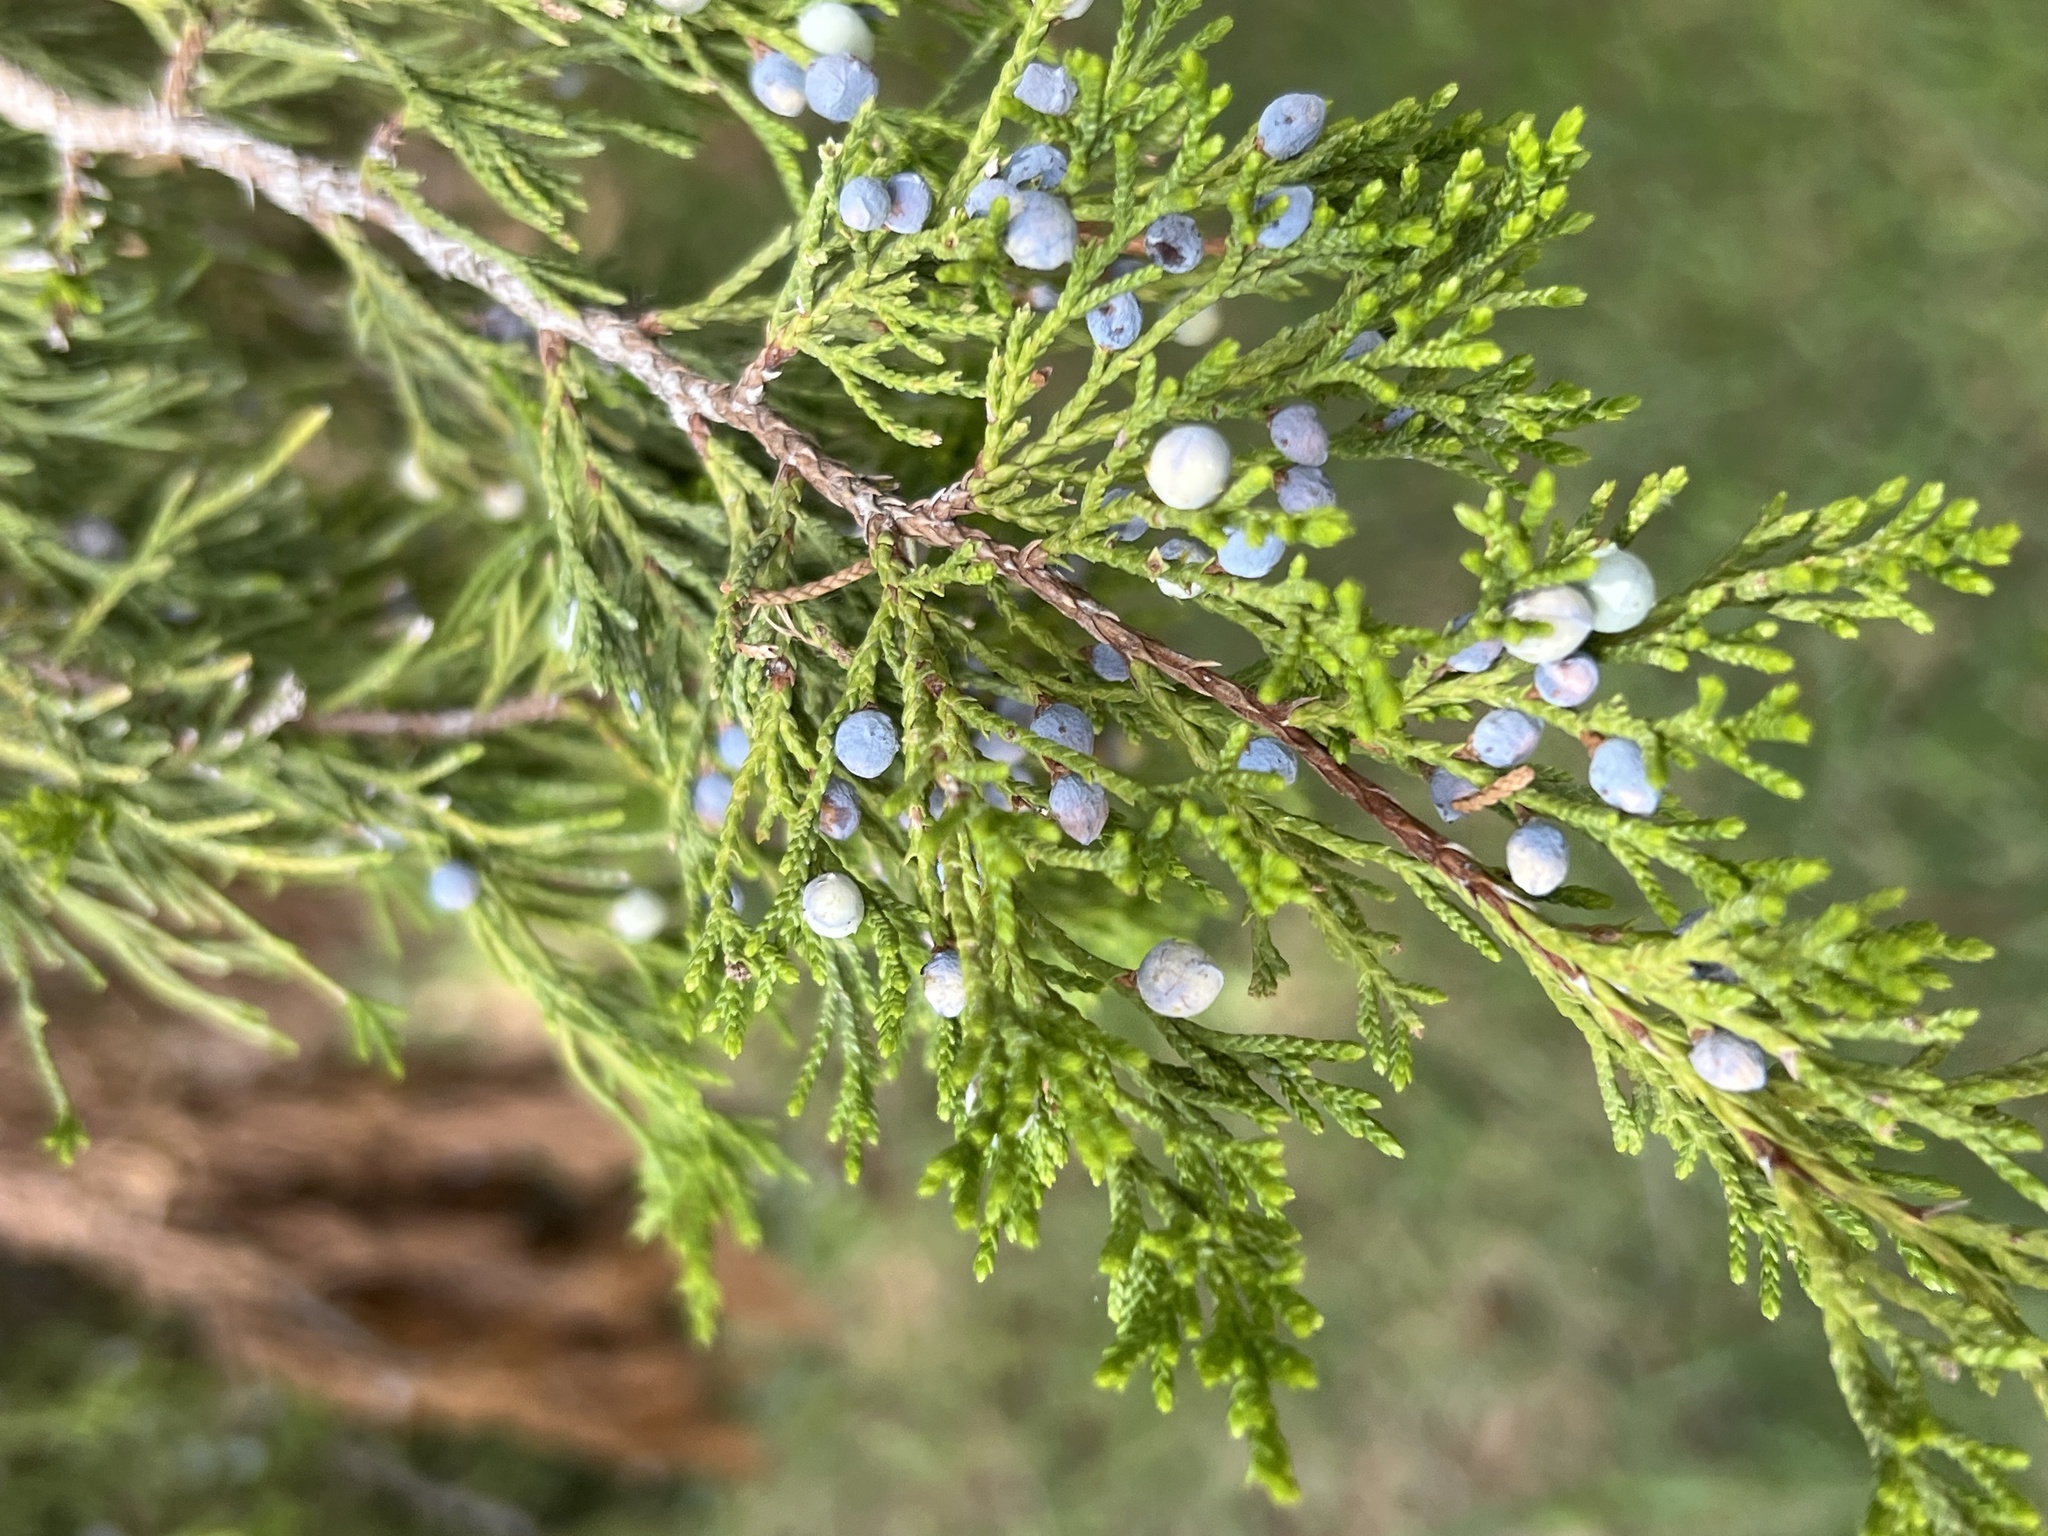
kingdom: Plantae
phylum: Tracheophyta
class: Pinopsida
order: Pinales
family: Cupressaceae
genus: Juniperus
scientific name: Juniperus ashei
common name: Mexican juniper
